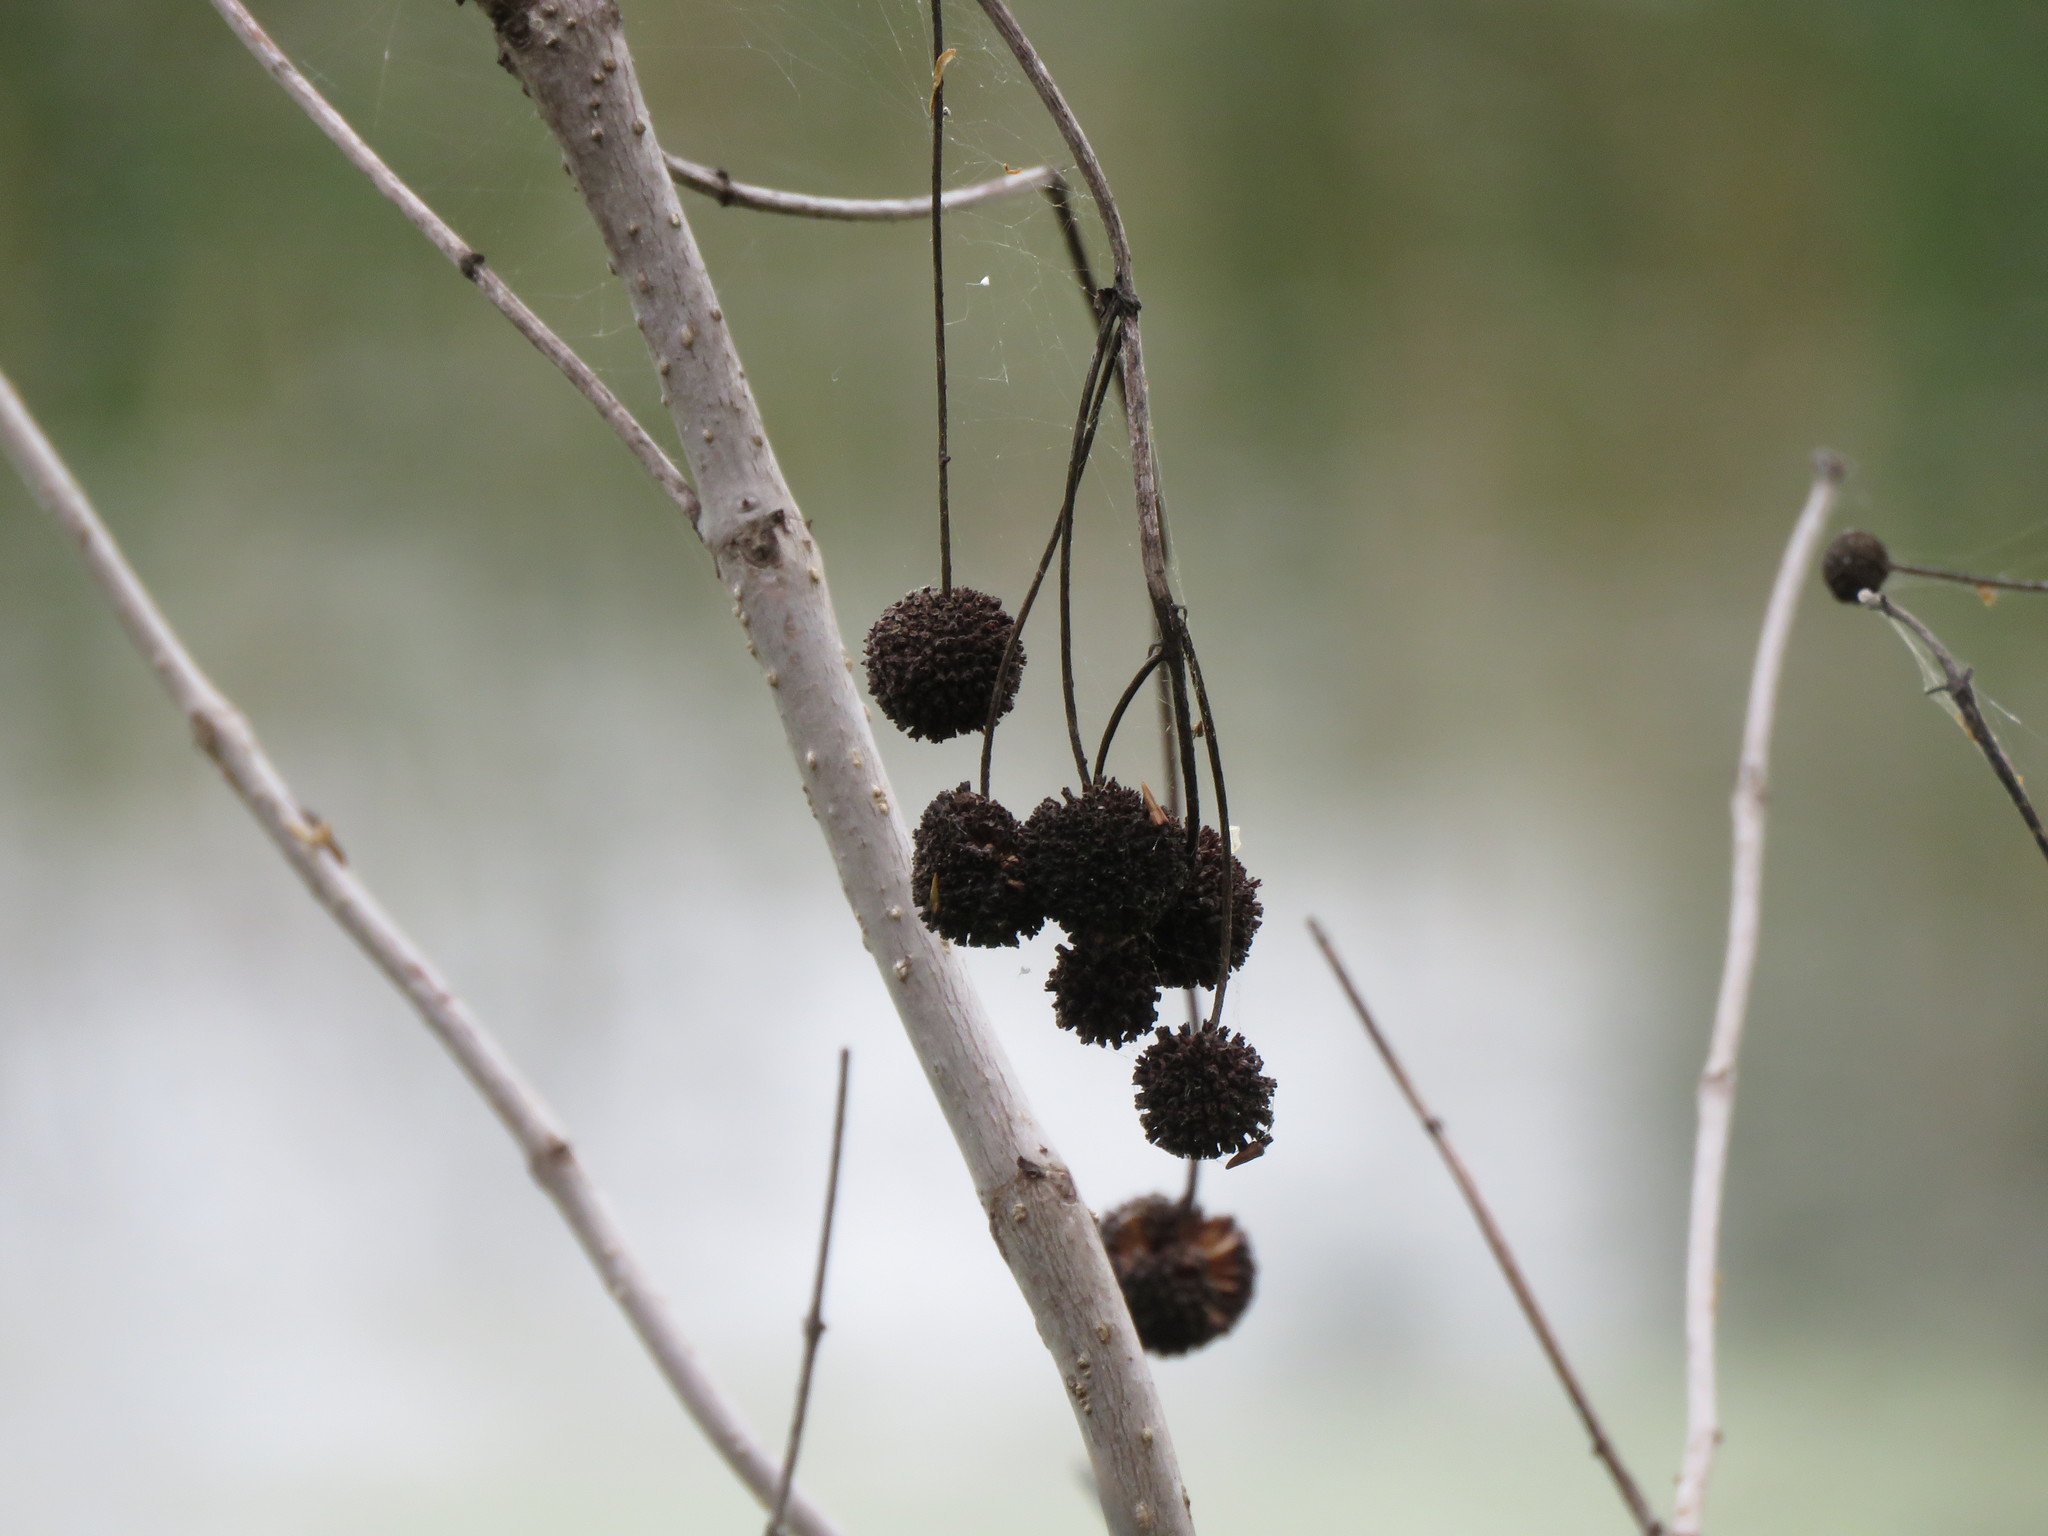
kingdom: Plantae
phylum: Tracheophyta
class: Magnoliopsida
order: Gentianales
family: Rubiaceae
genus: Cephalanthus
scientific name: Cephalanthus occidentalis
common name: Button-willow
